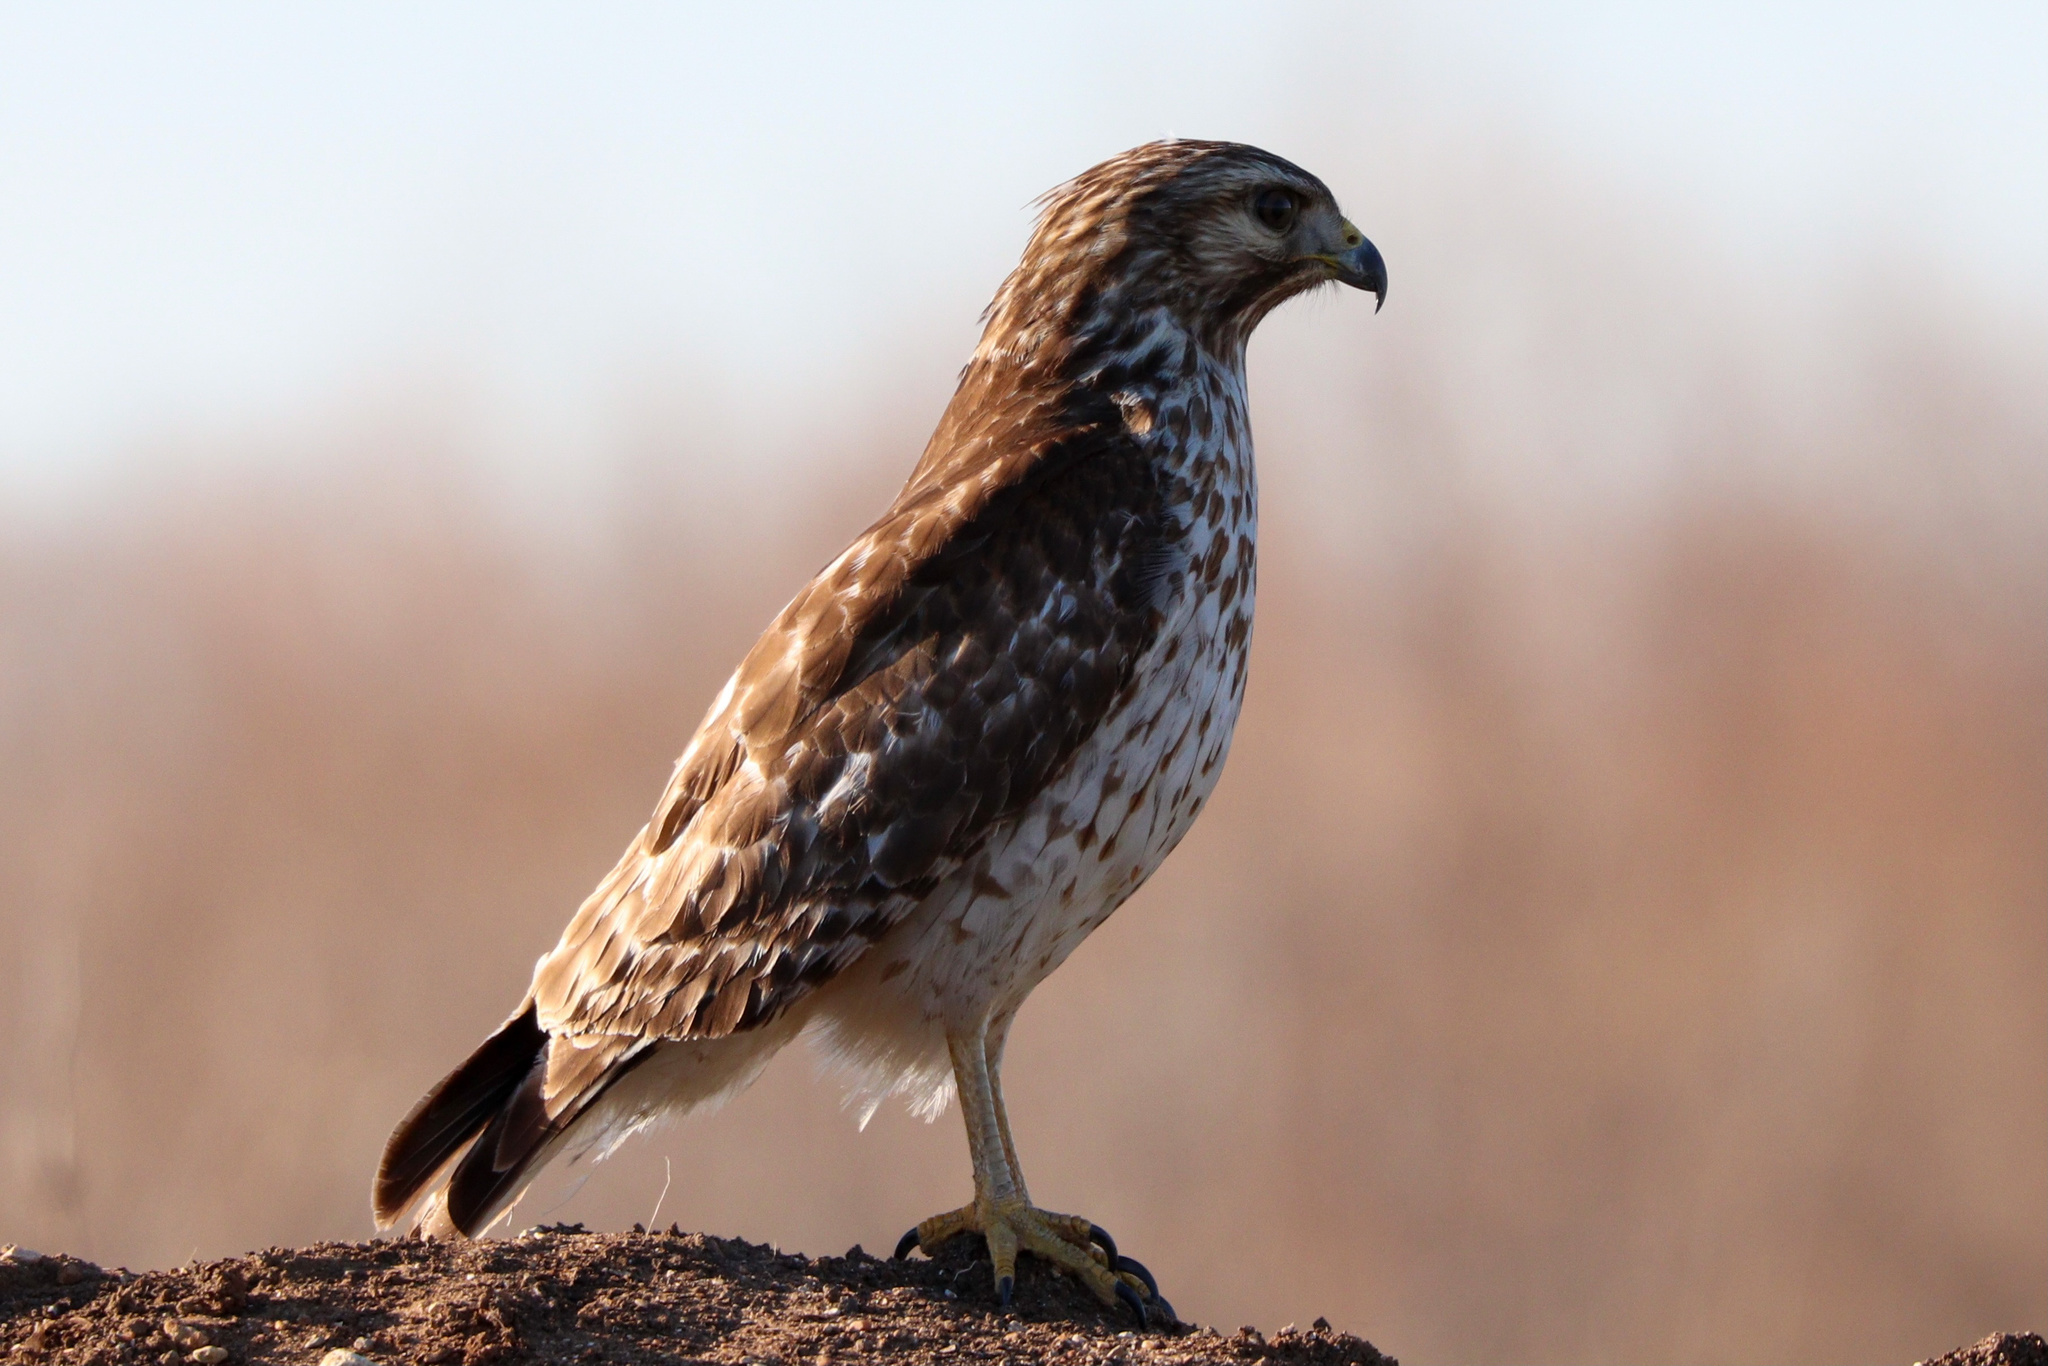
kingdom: Animalia
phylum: Chordata
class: Aves
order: Accipitriformes
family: Accipitridae
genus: Buteo
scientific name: Buteo lineatus
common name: Red-shouldered hawk
